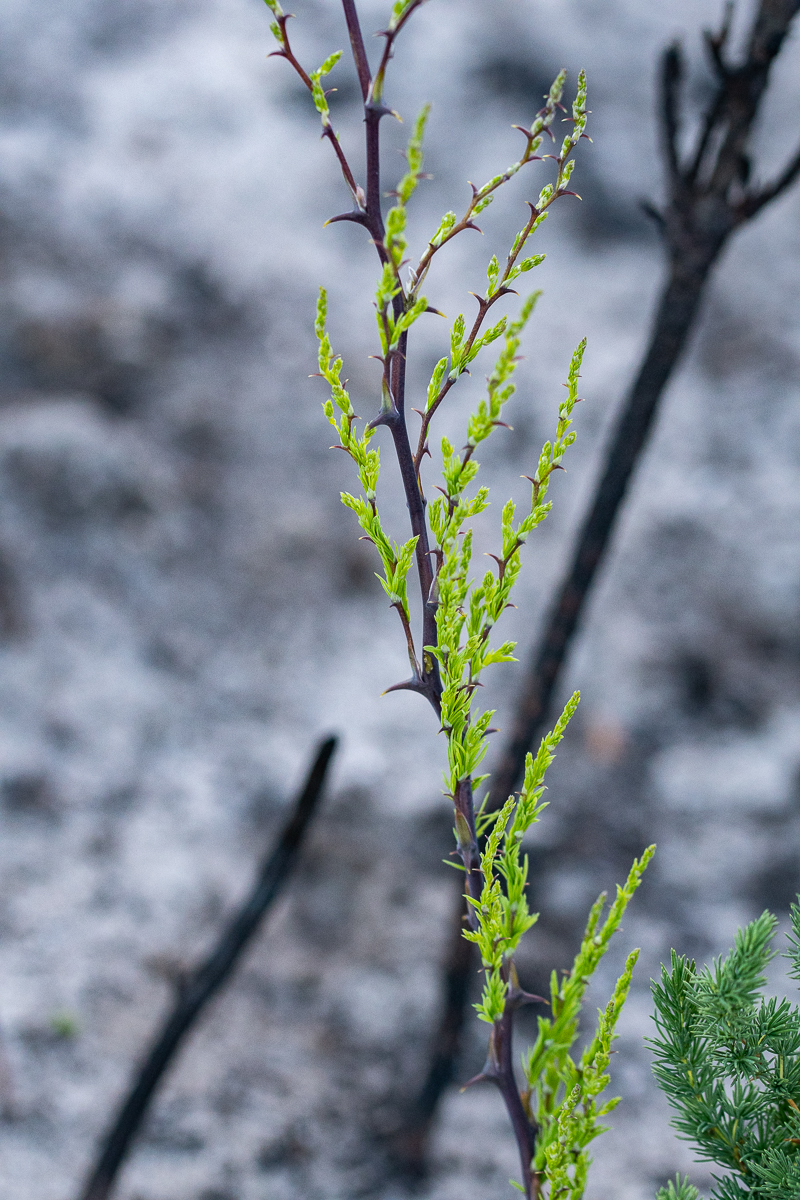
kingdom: Plantae
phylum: Tracheophyta
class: Liliopsida
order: Asparagales
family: Asparagaceae
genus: Asparagus
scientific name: Asparagus rubicundus
